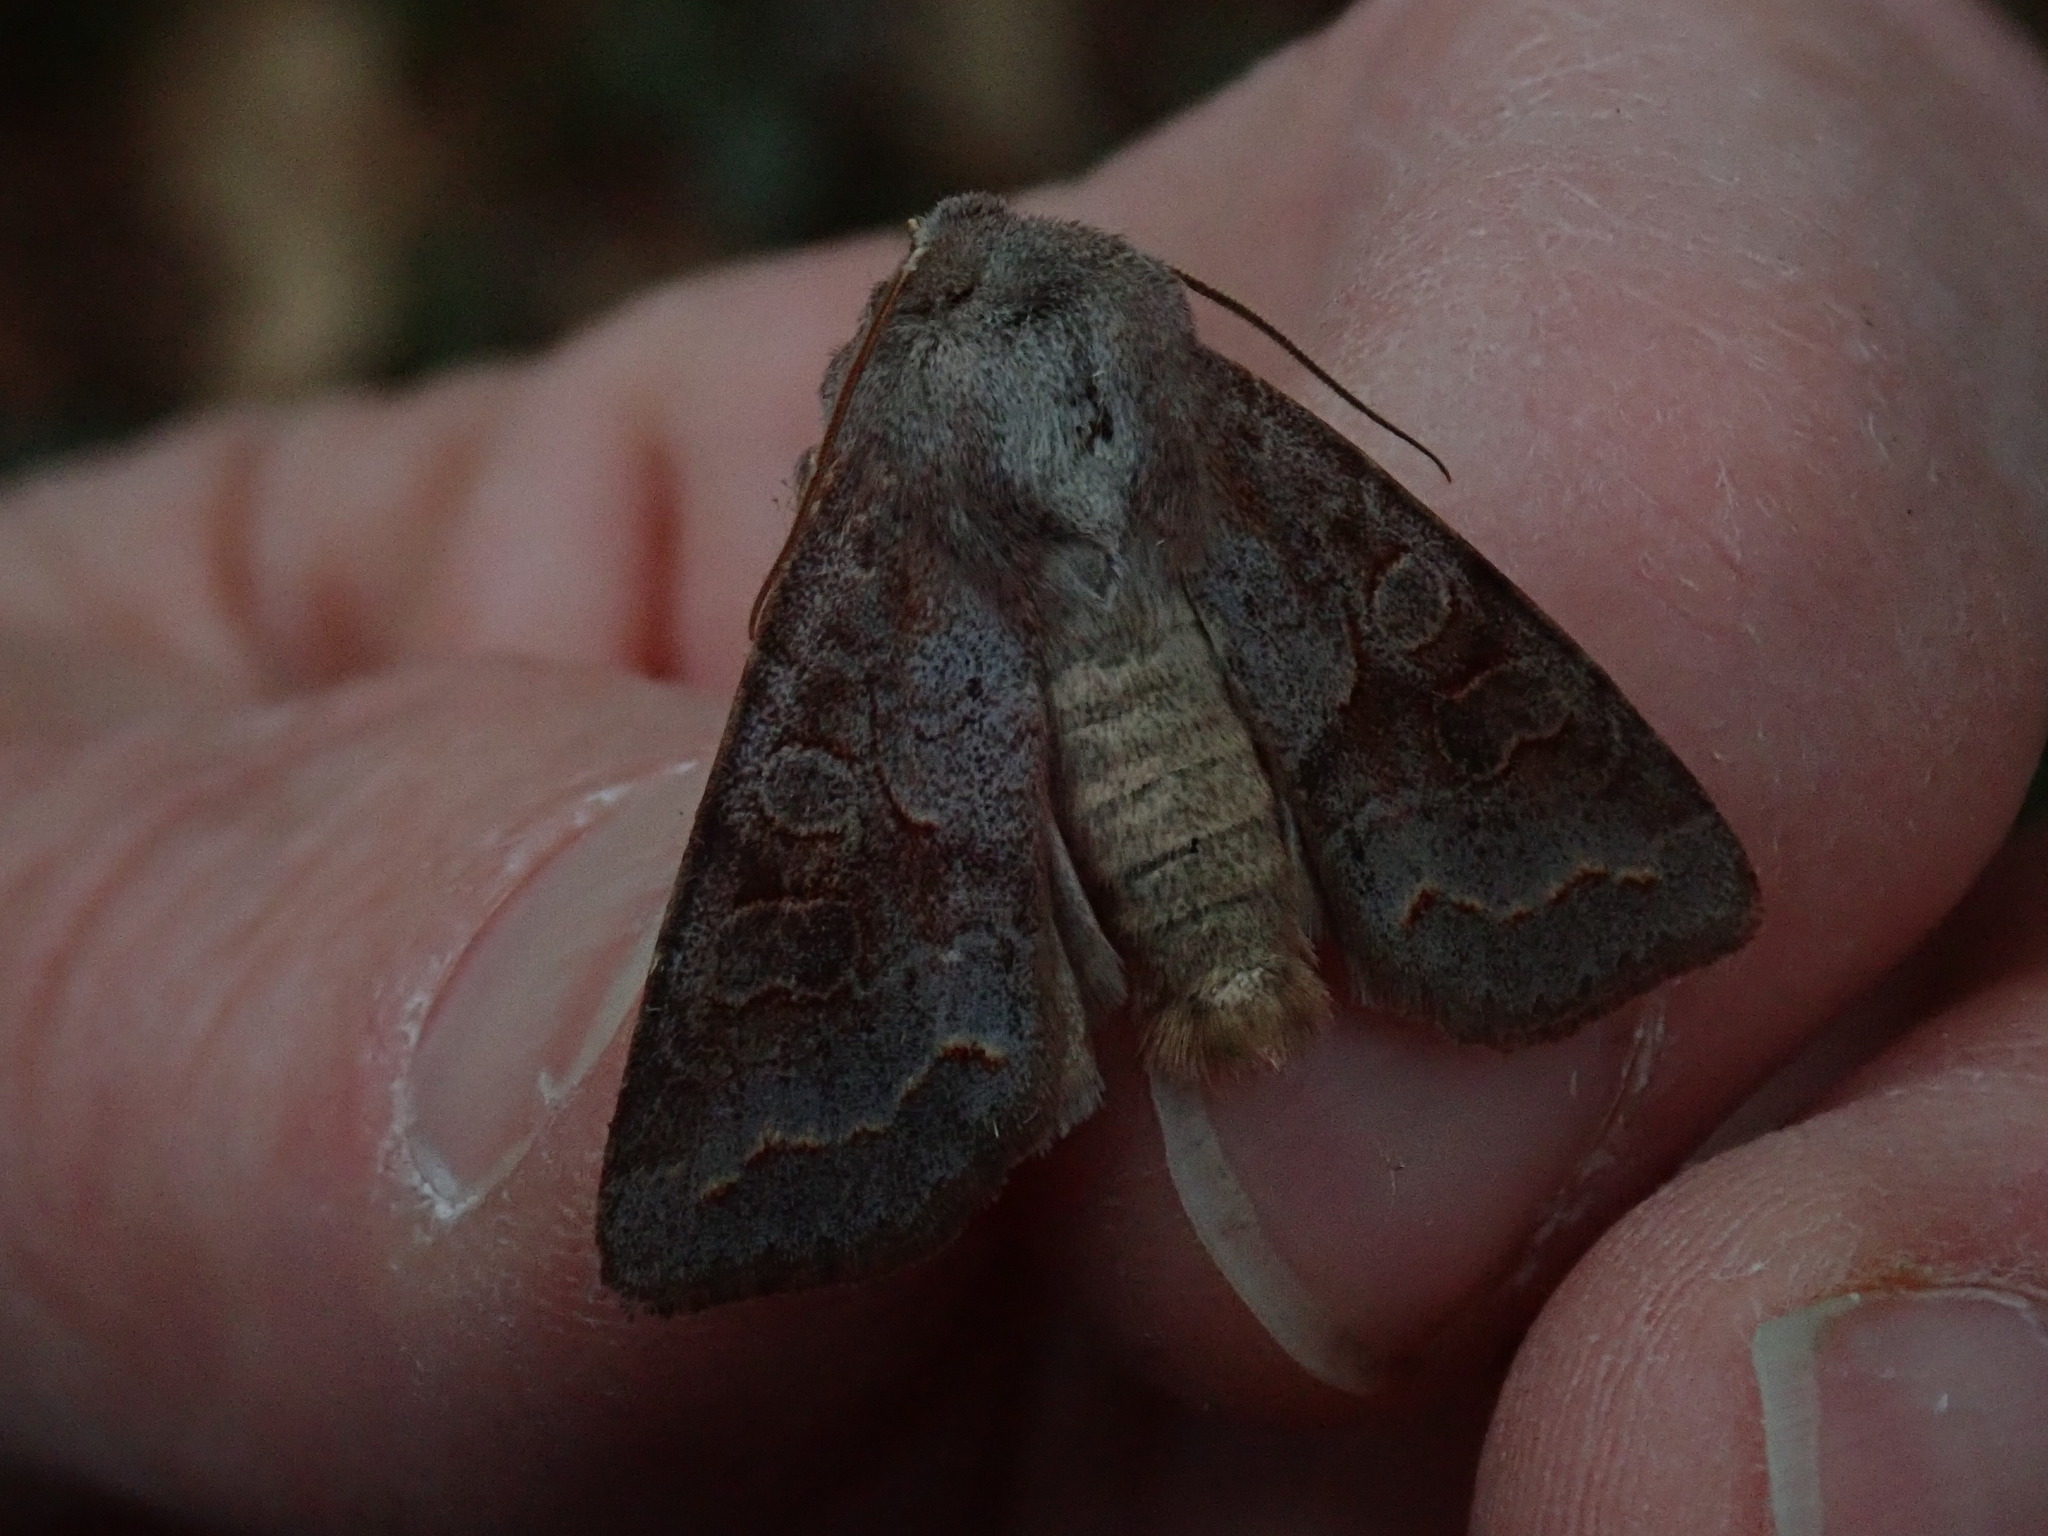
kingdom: Animalia
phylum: Arthropoda
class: Insecta
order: Lepidoptera
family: Noctuidae
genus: Orthosia
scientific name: Orthosia revicta
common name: Rusty whitesided caterpillar
